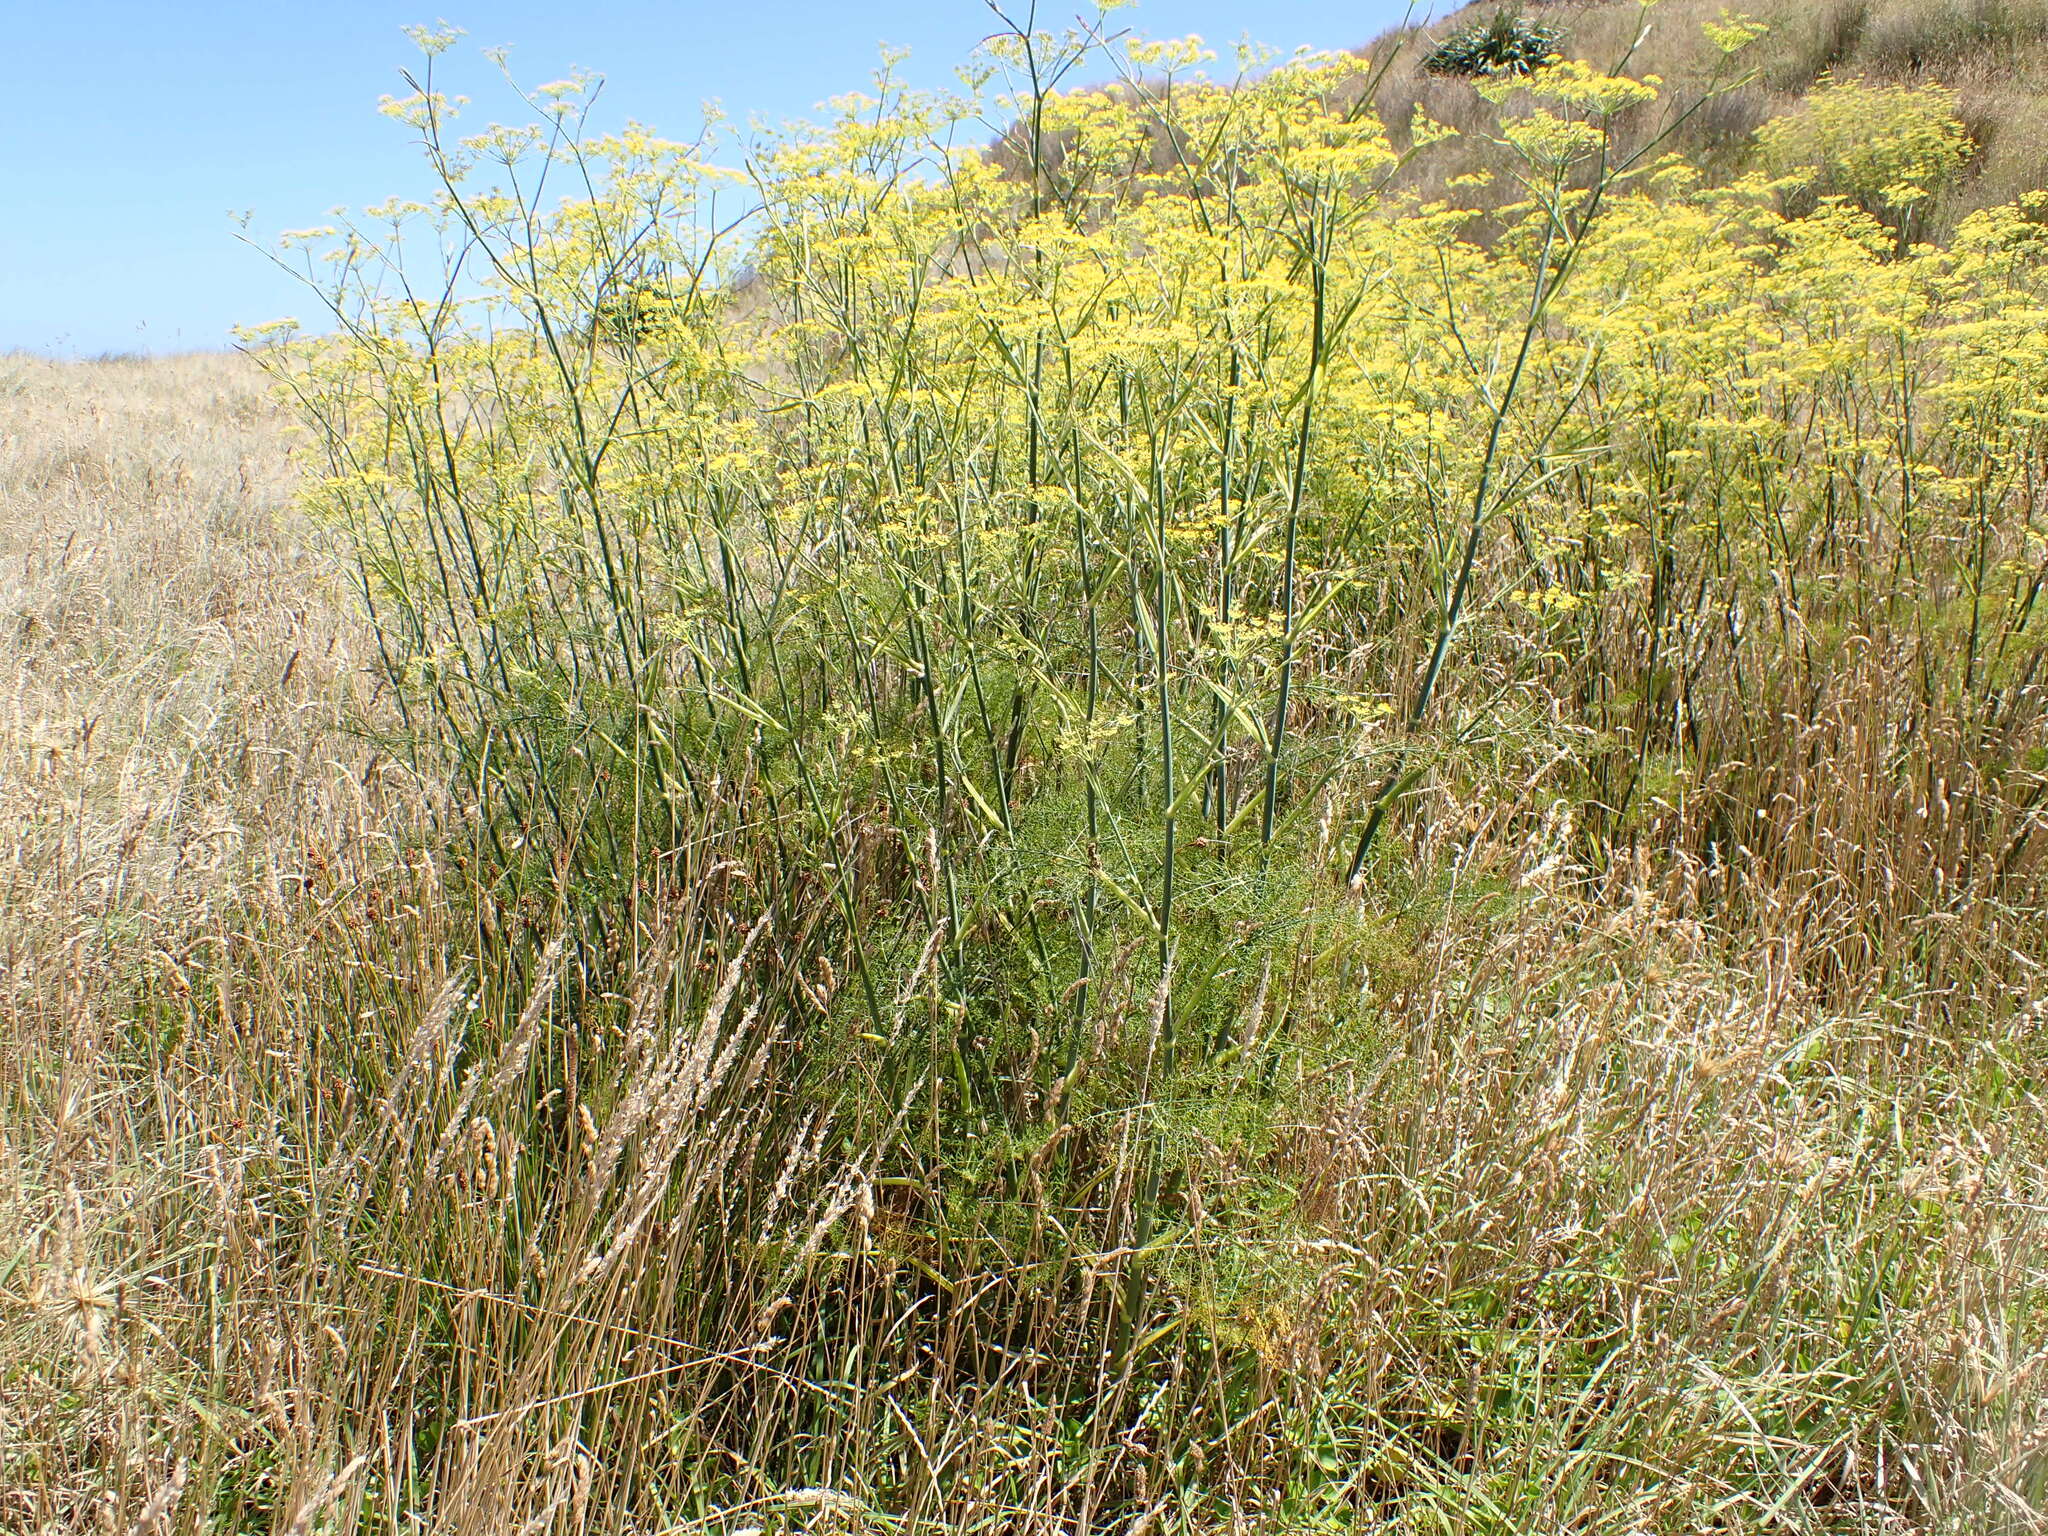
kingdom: Plantae
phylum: Tracheophyta
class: Magnoliopsida
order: Apiales
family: Apiaceae
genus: Foeniculum
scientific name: Foeniculum vulgare
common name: Fennel
